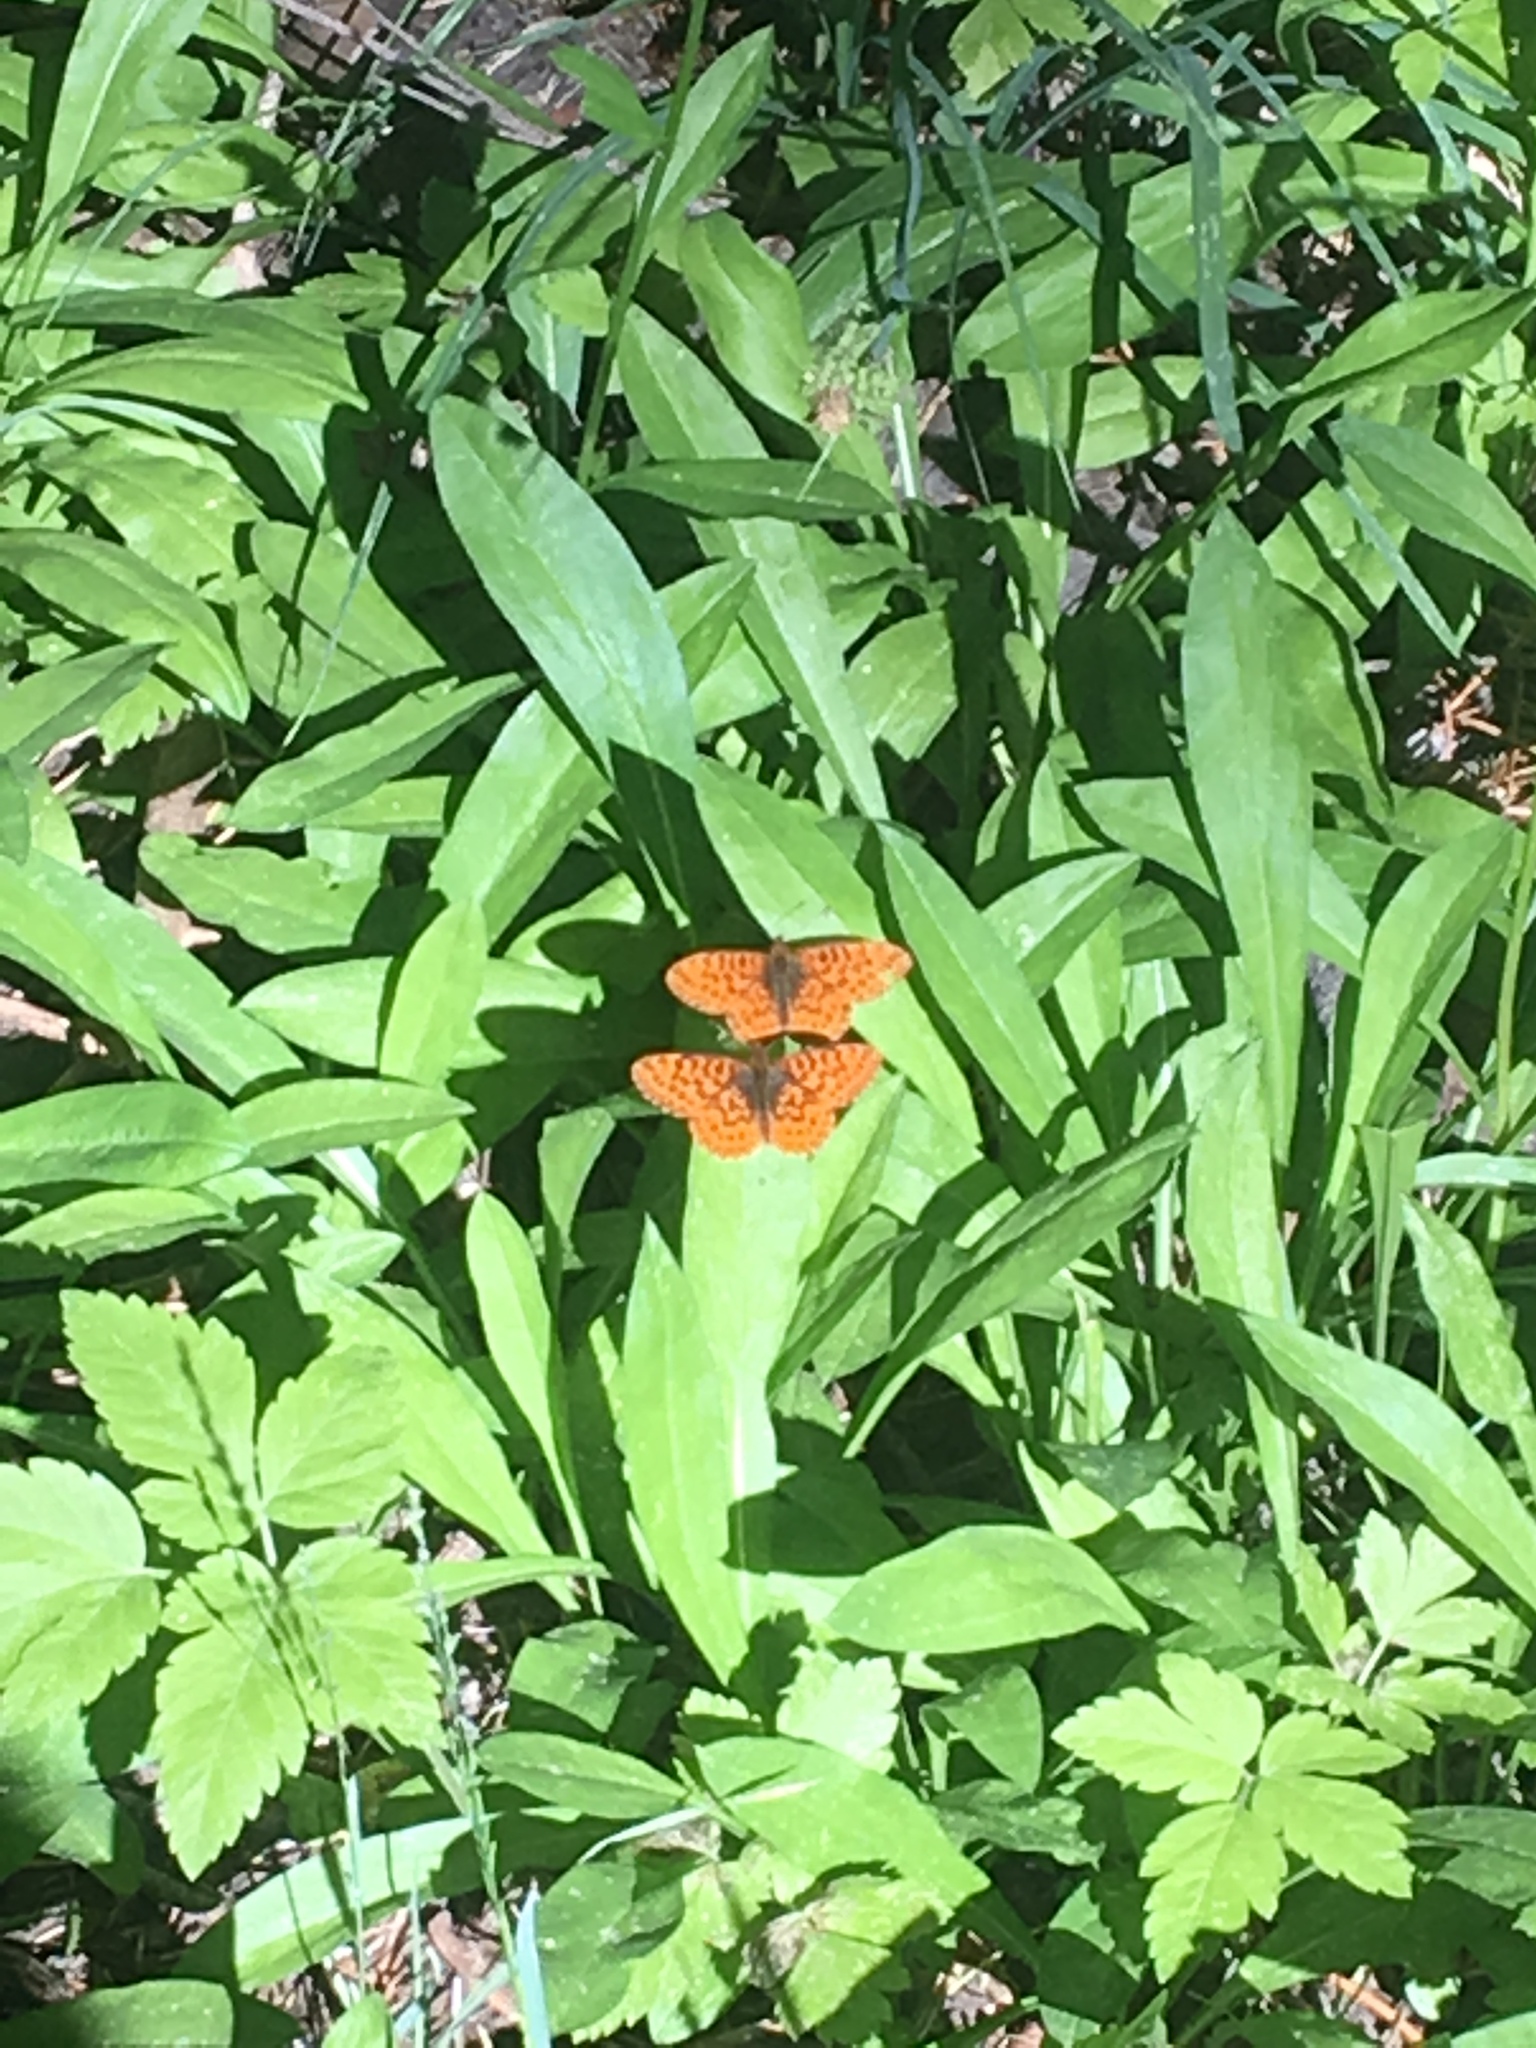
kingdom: Animalia
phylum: Arthropoda
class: Insecta
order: Lepidoptera
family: Nymphalidae
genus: Boloria
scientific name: Boloria epithore
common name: Pacific fritillary
